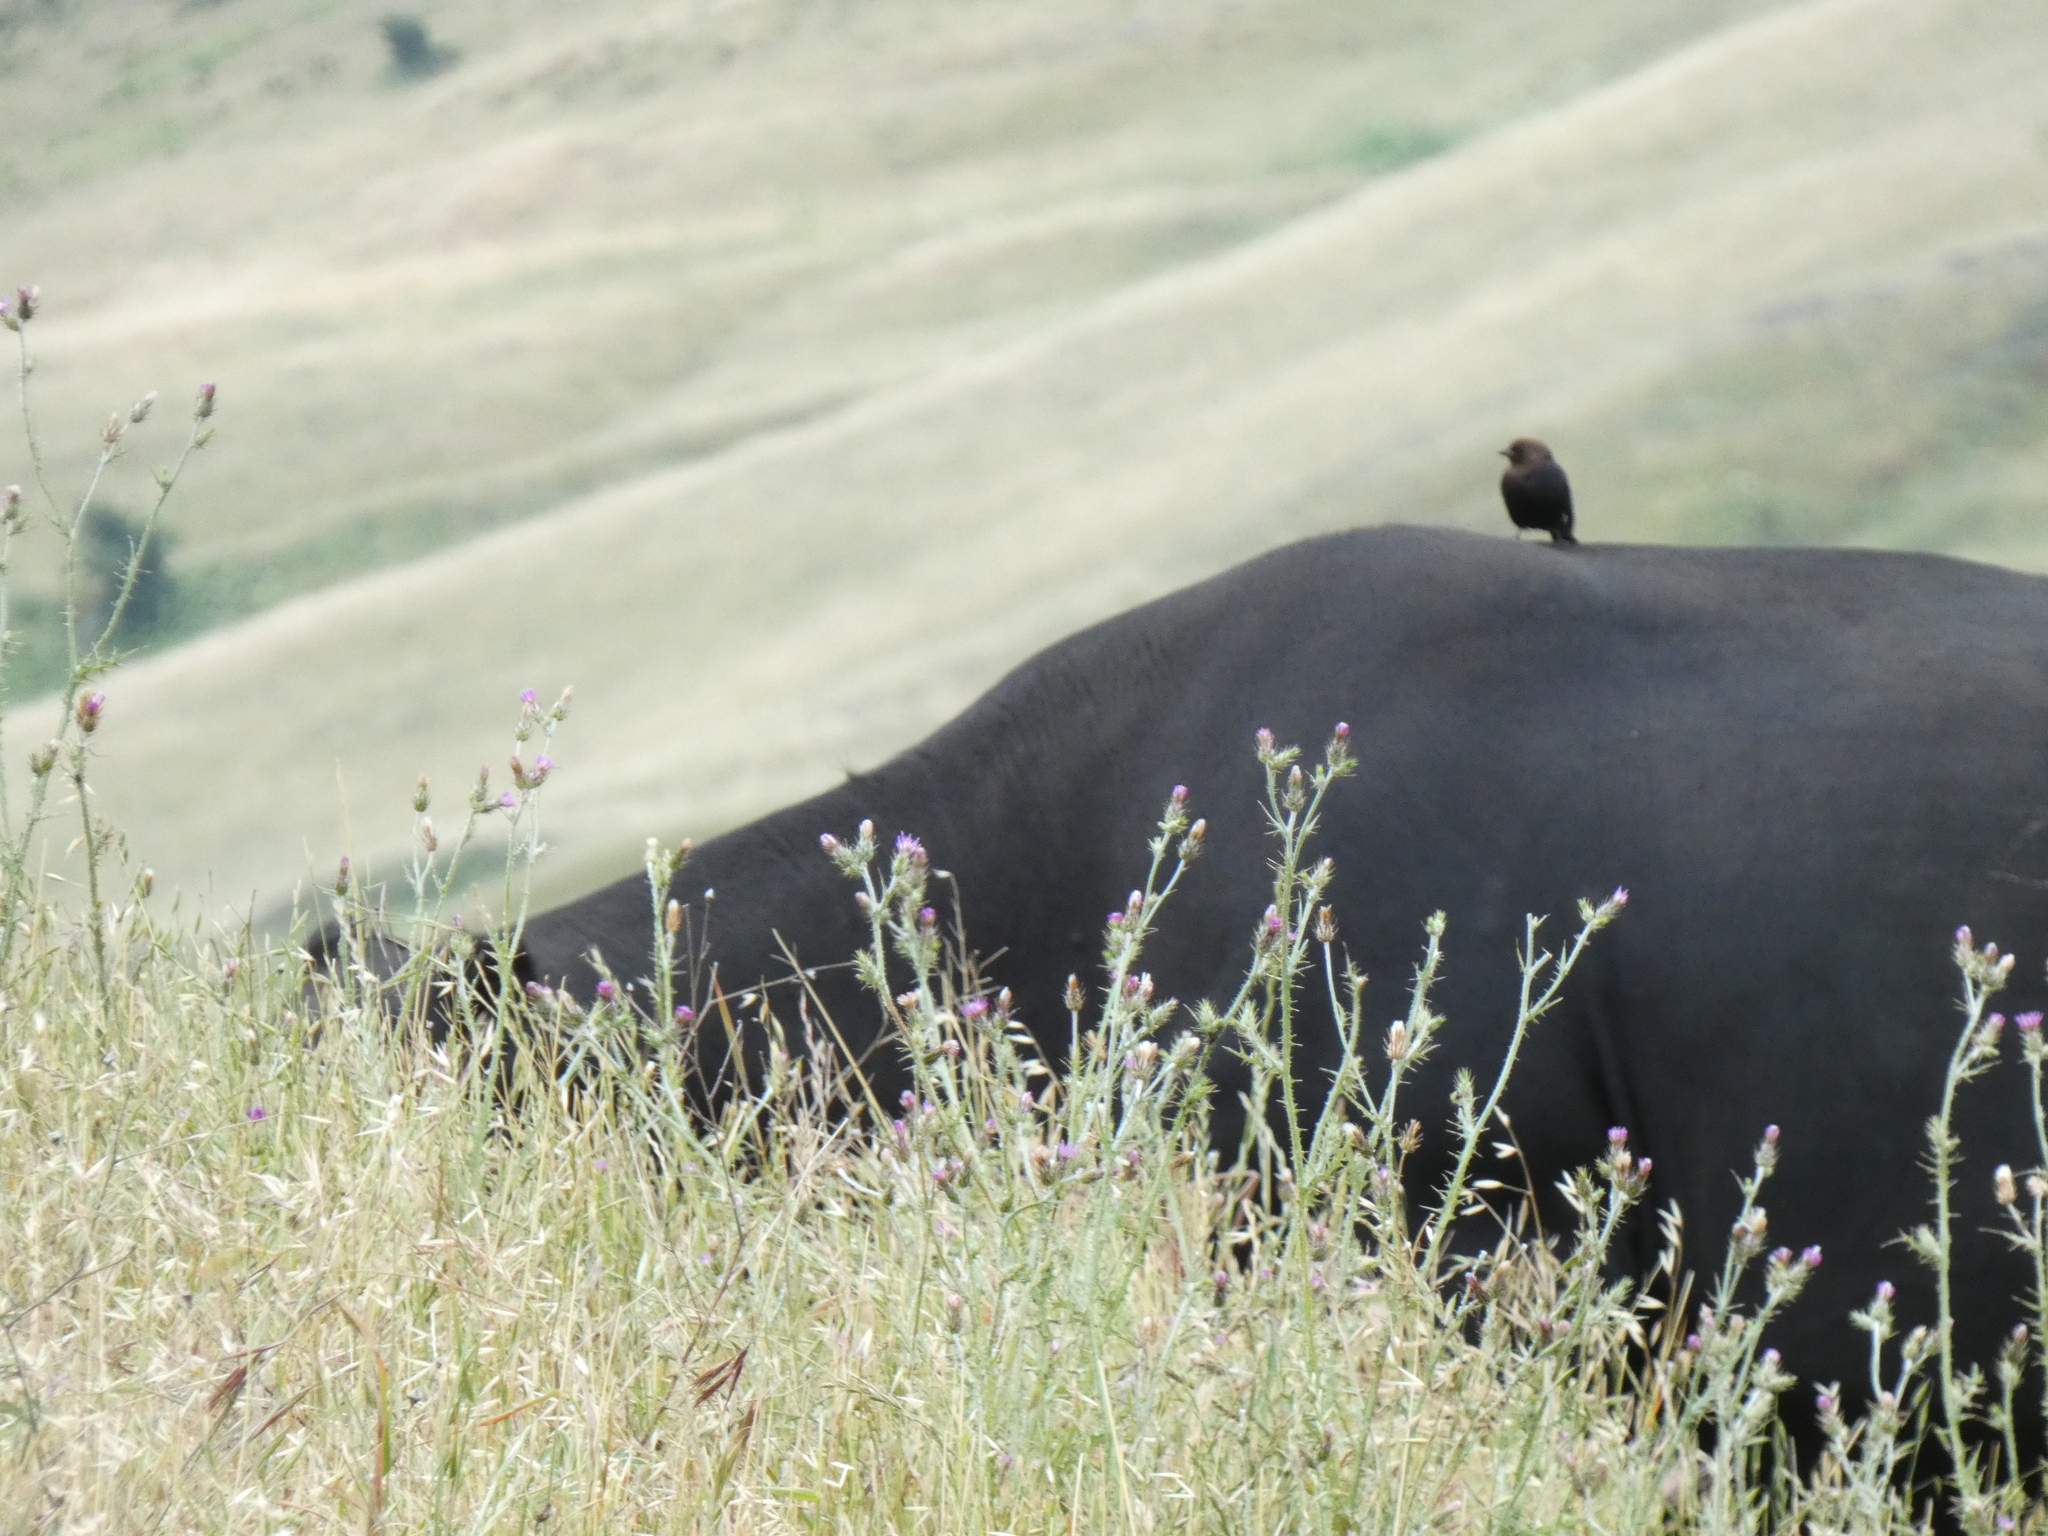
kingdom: Animalia
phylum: Chordata
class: Aves
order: Passeriformes
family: Icteridae
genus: Molothrus
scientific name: Molothrus ater
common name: Brown-headed cowbird
